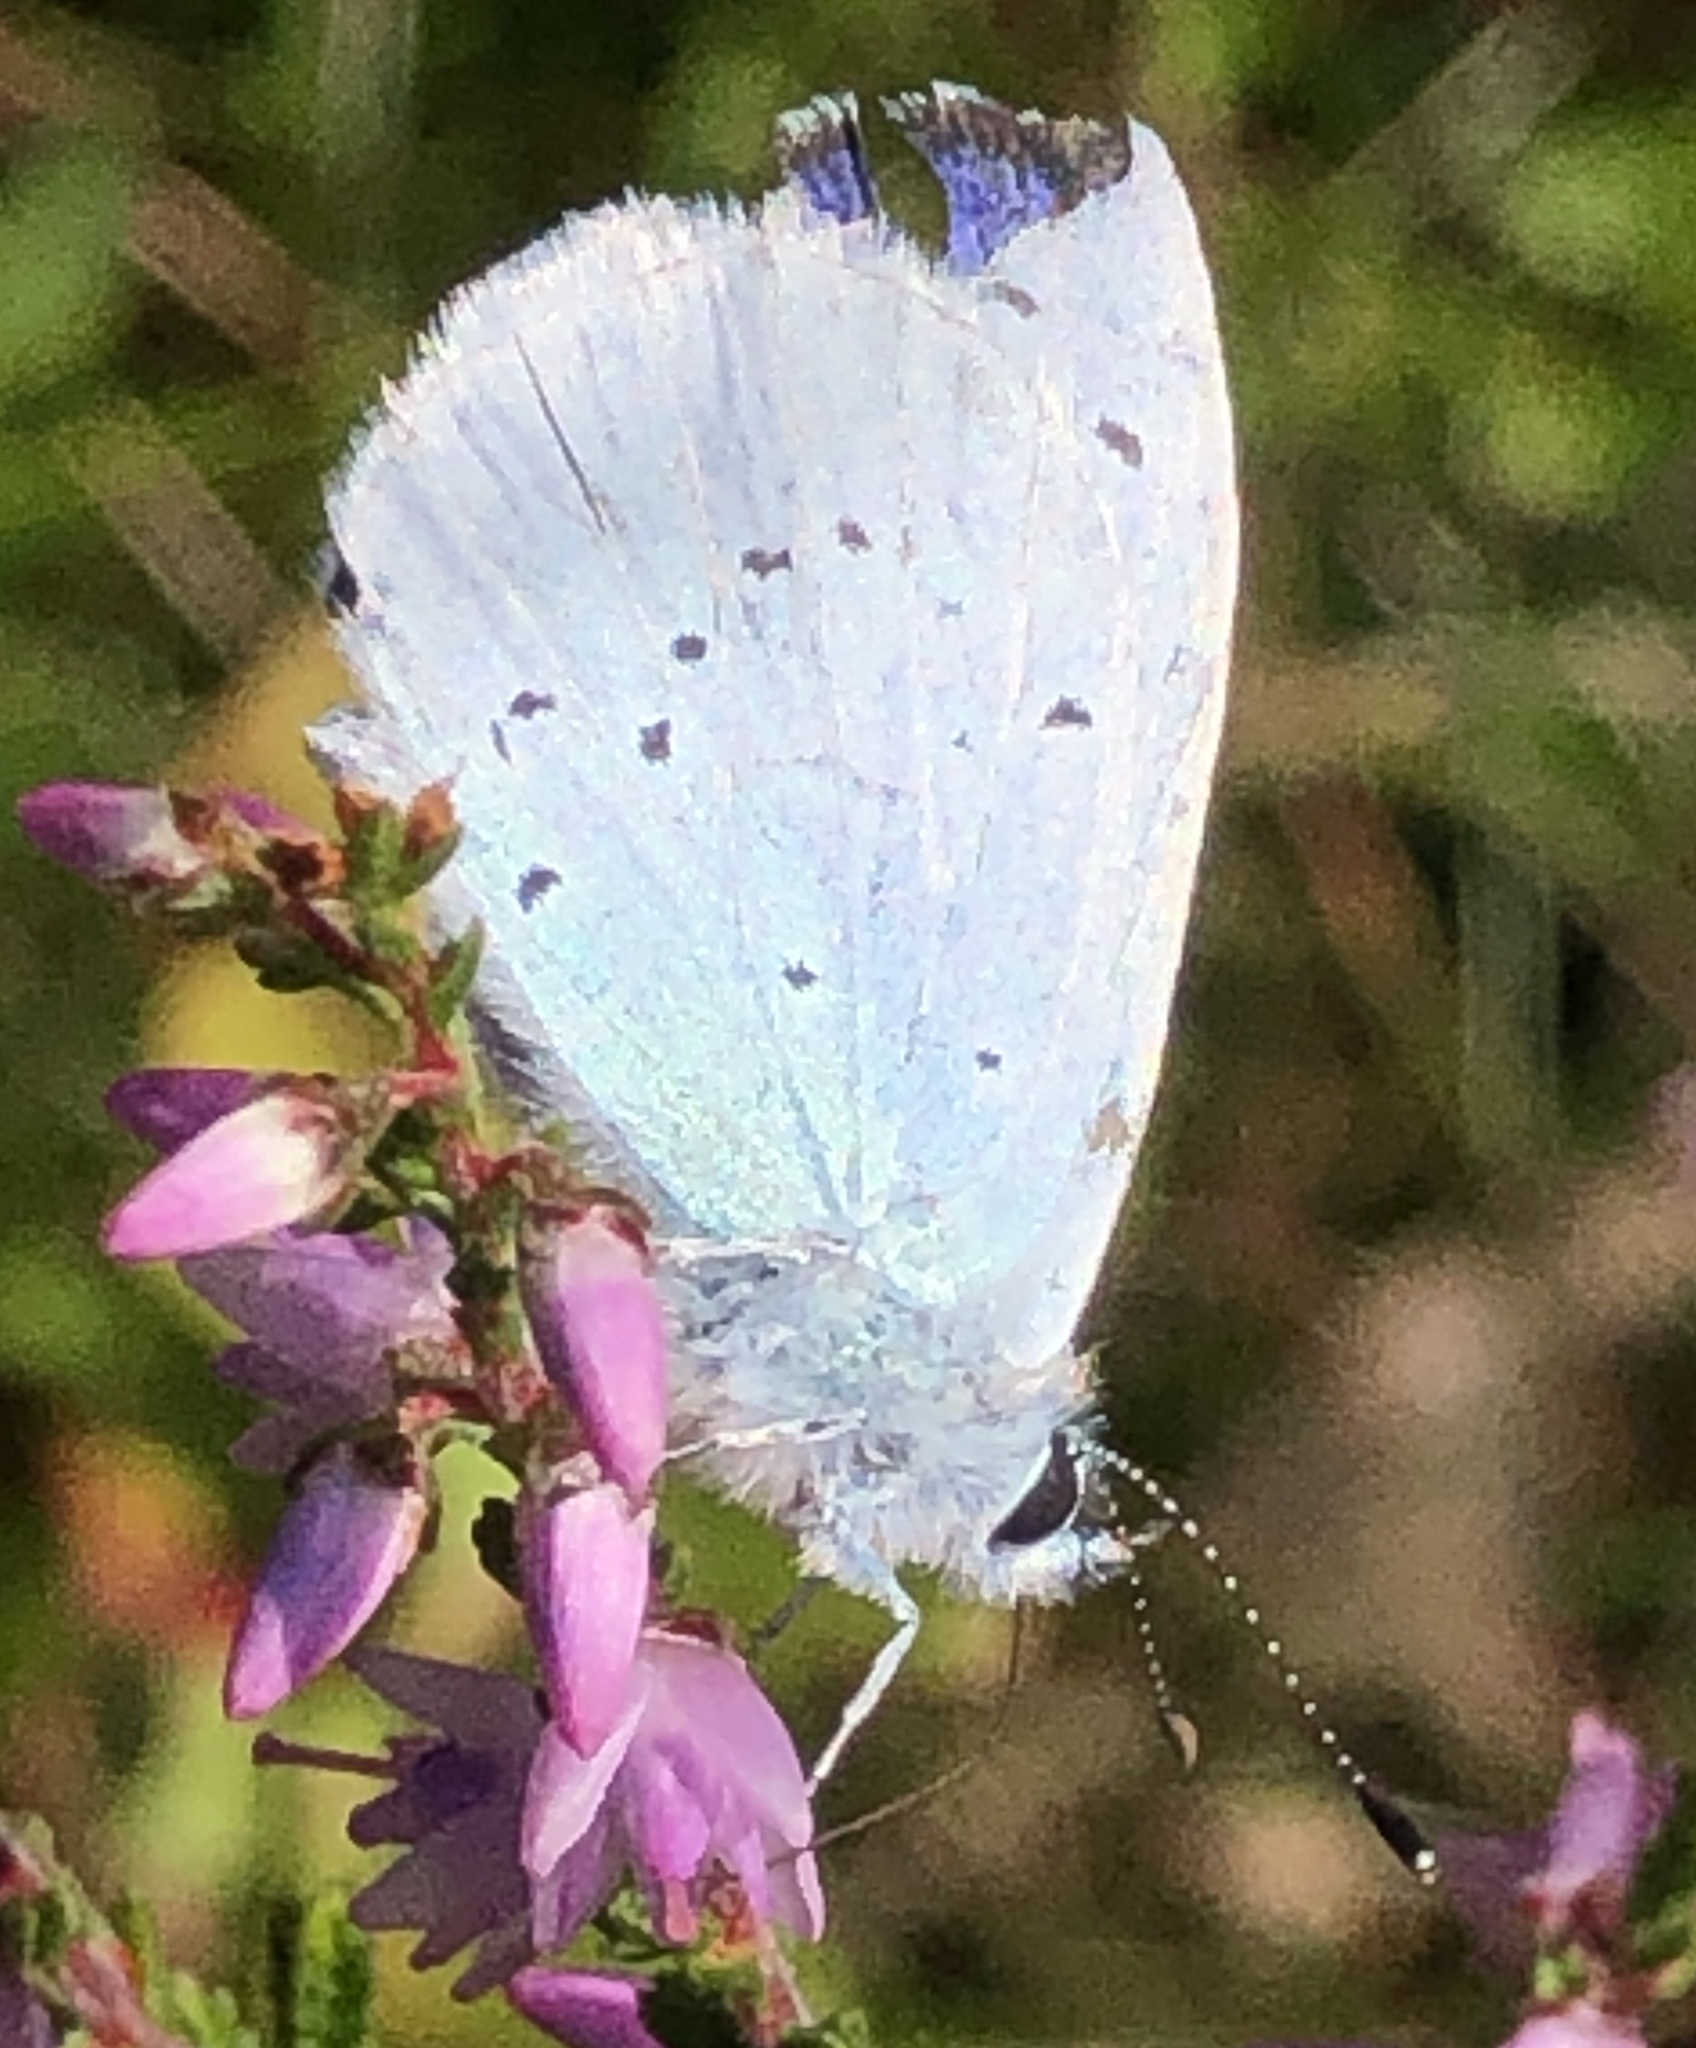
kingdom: Animalia
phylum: Arthropoda
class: Insecta
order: Lepidoptera
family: Lycaenidae
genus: Celastrina
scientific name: Celastrina argiolus
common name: Holly blue
